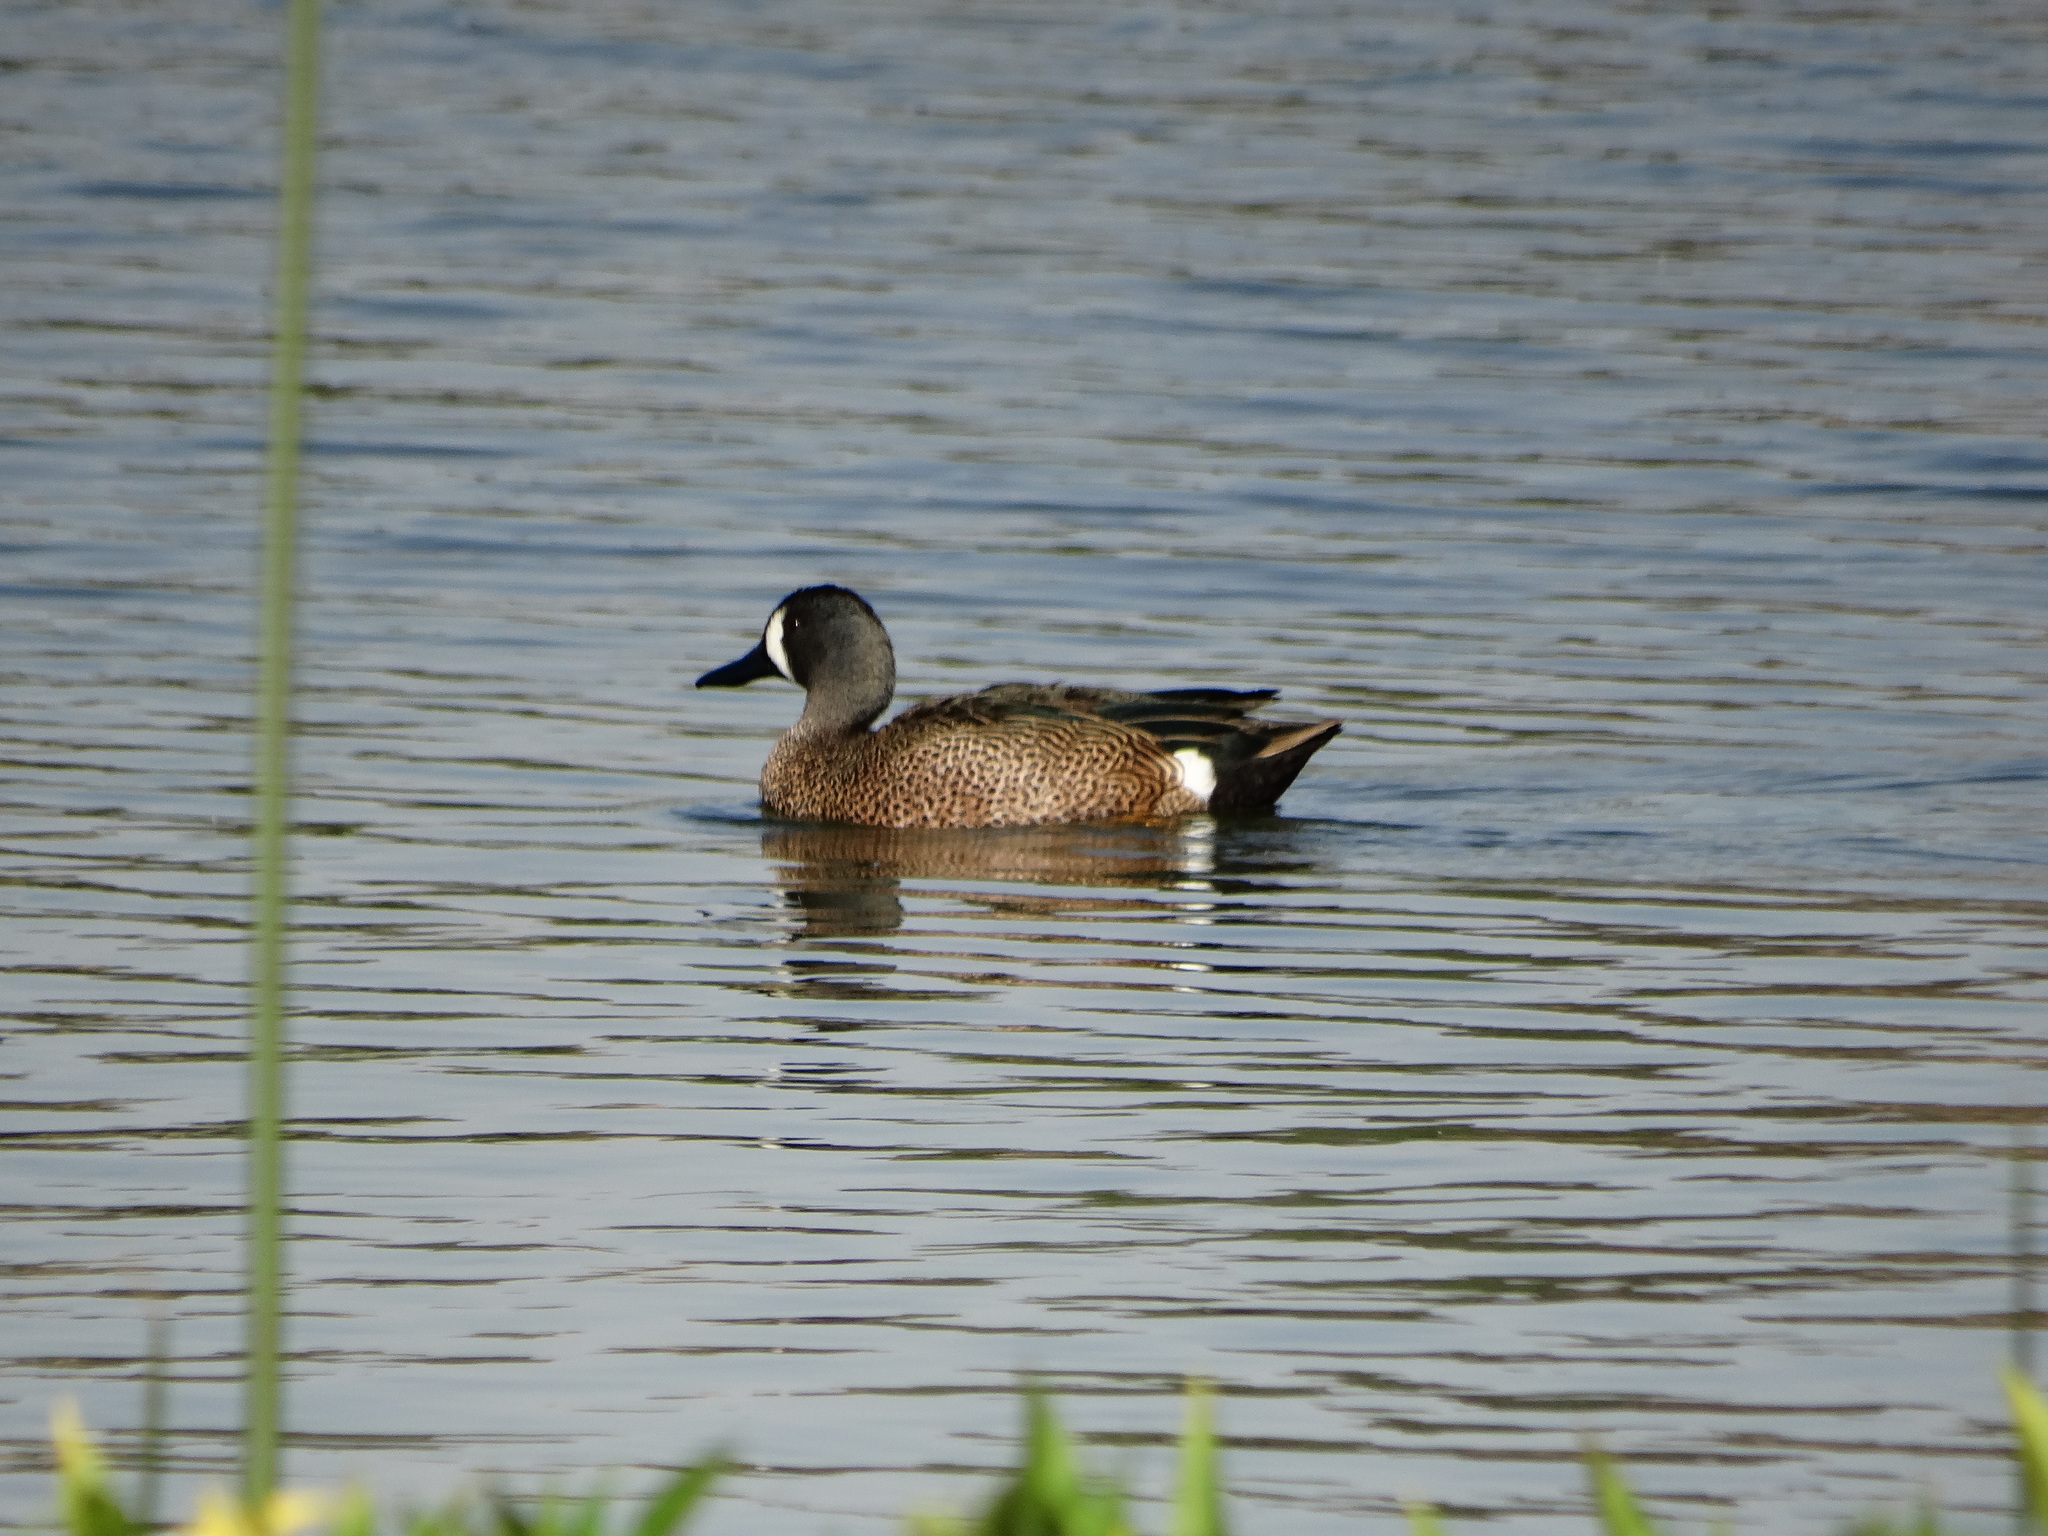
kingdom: Animalia
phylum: Chordata
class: Aves
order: Anseriformes
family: Anatidae
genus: Spatula
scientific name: Spatula discors
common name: Blue-winged teal
